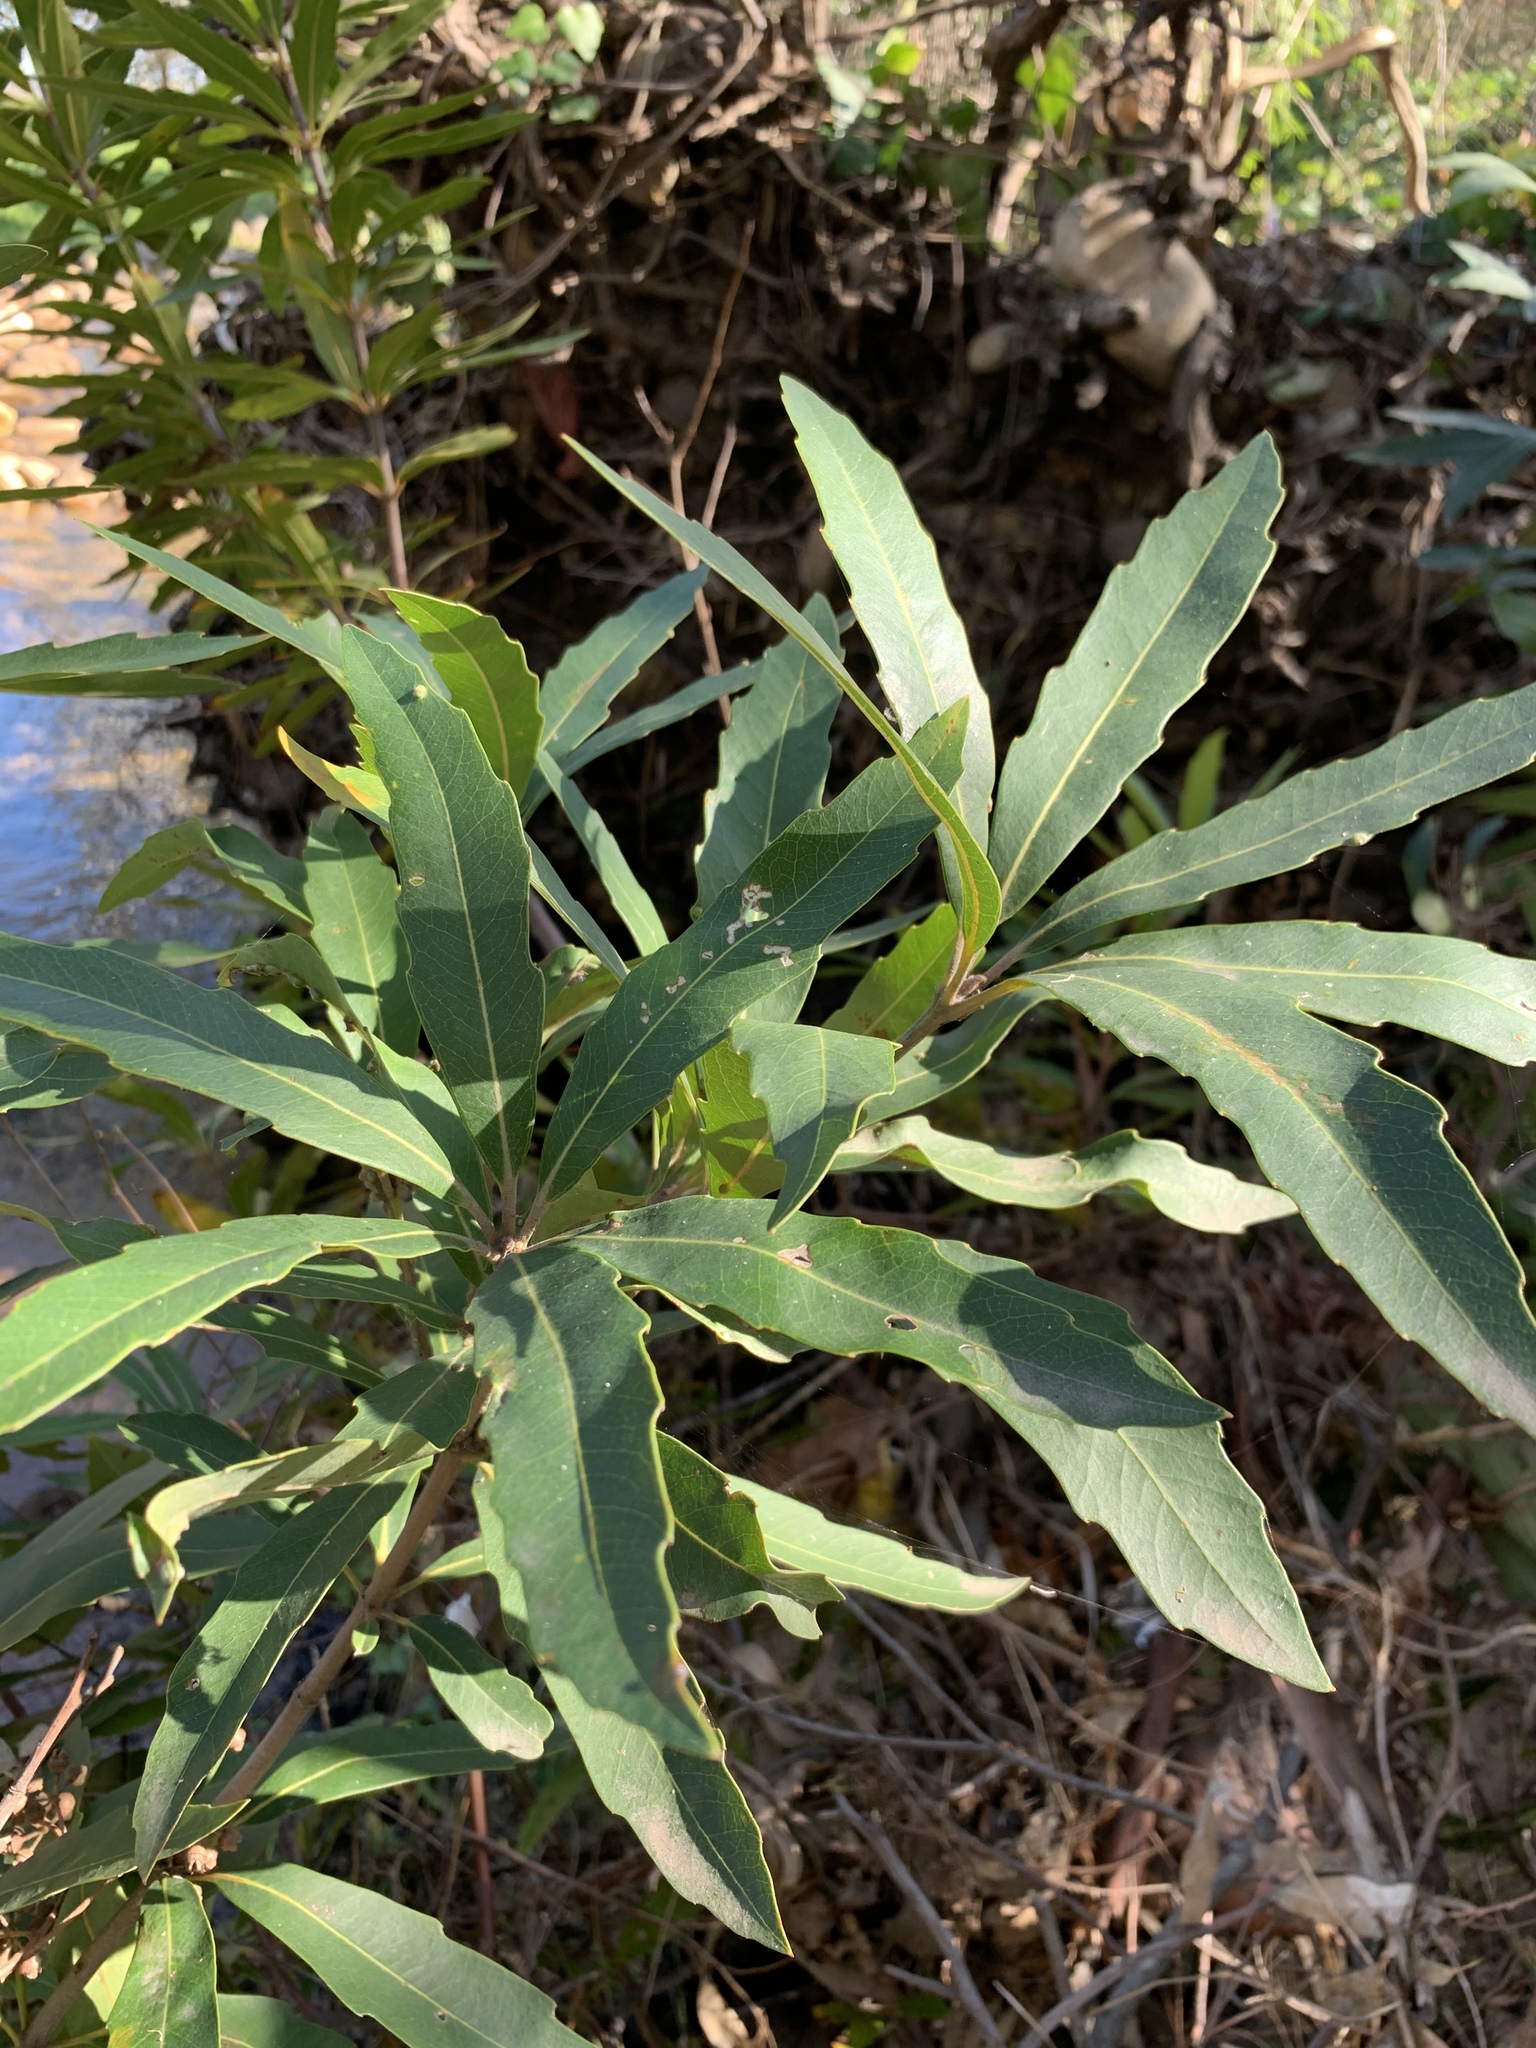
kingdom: Plantae
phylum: Tracheophyta
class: Magnoliopsida
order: Proteales
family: Proteaceae
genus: Brabejum
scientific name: Brabejum stellatifolium
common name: Wild almond
